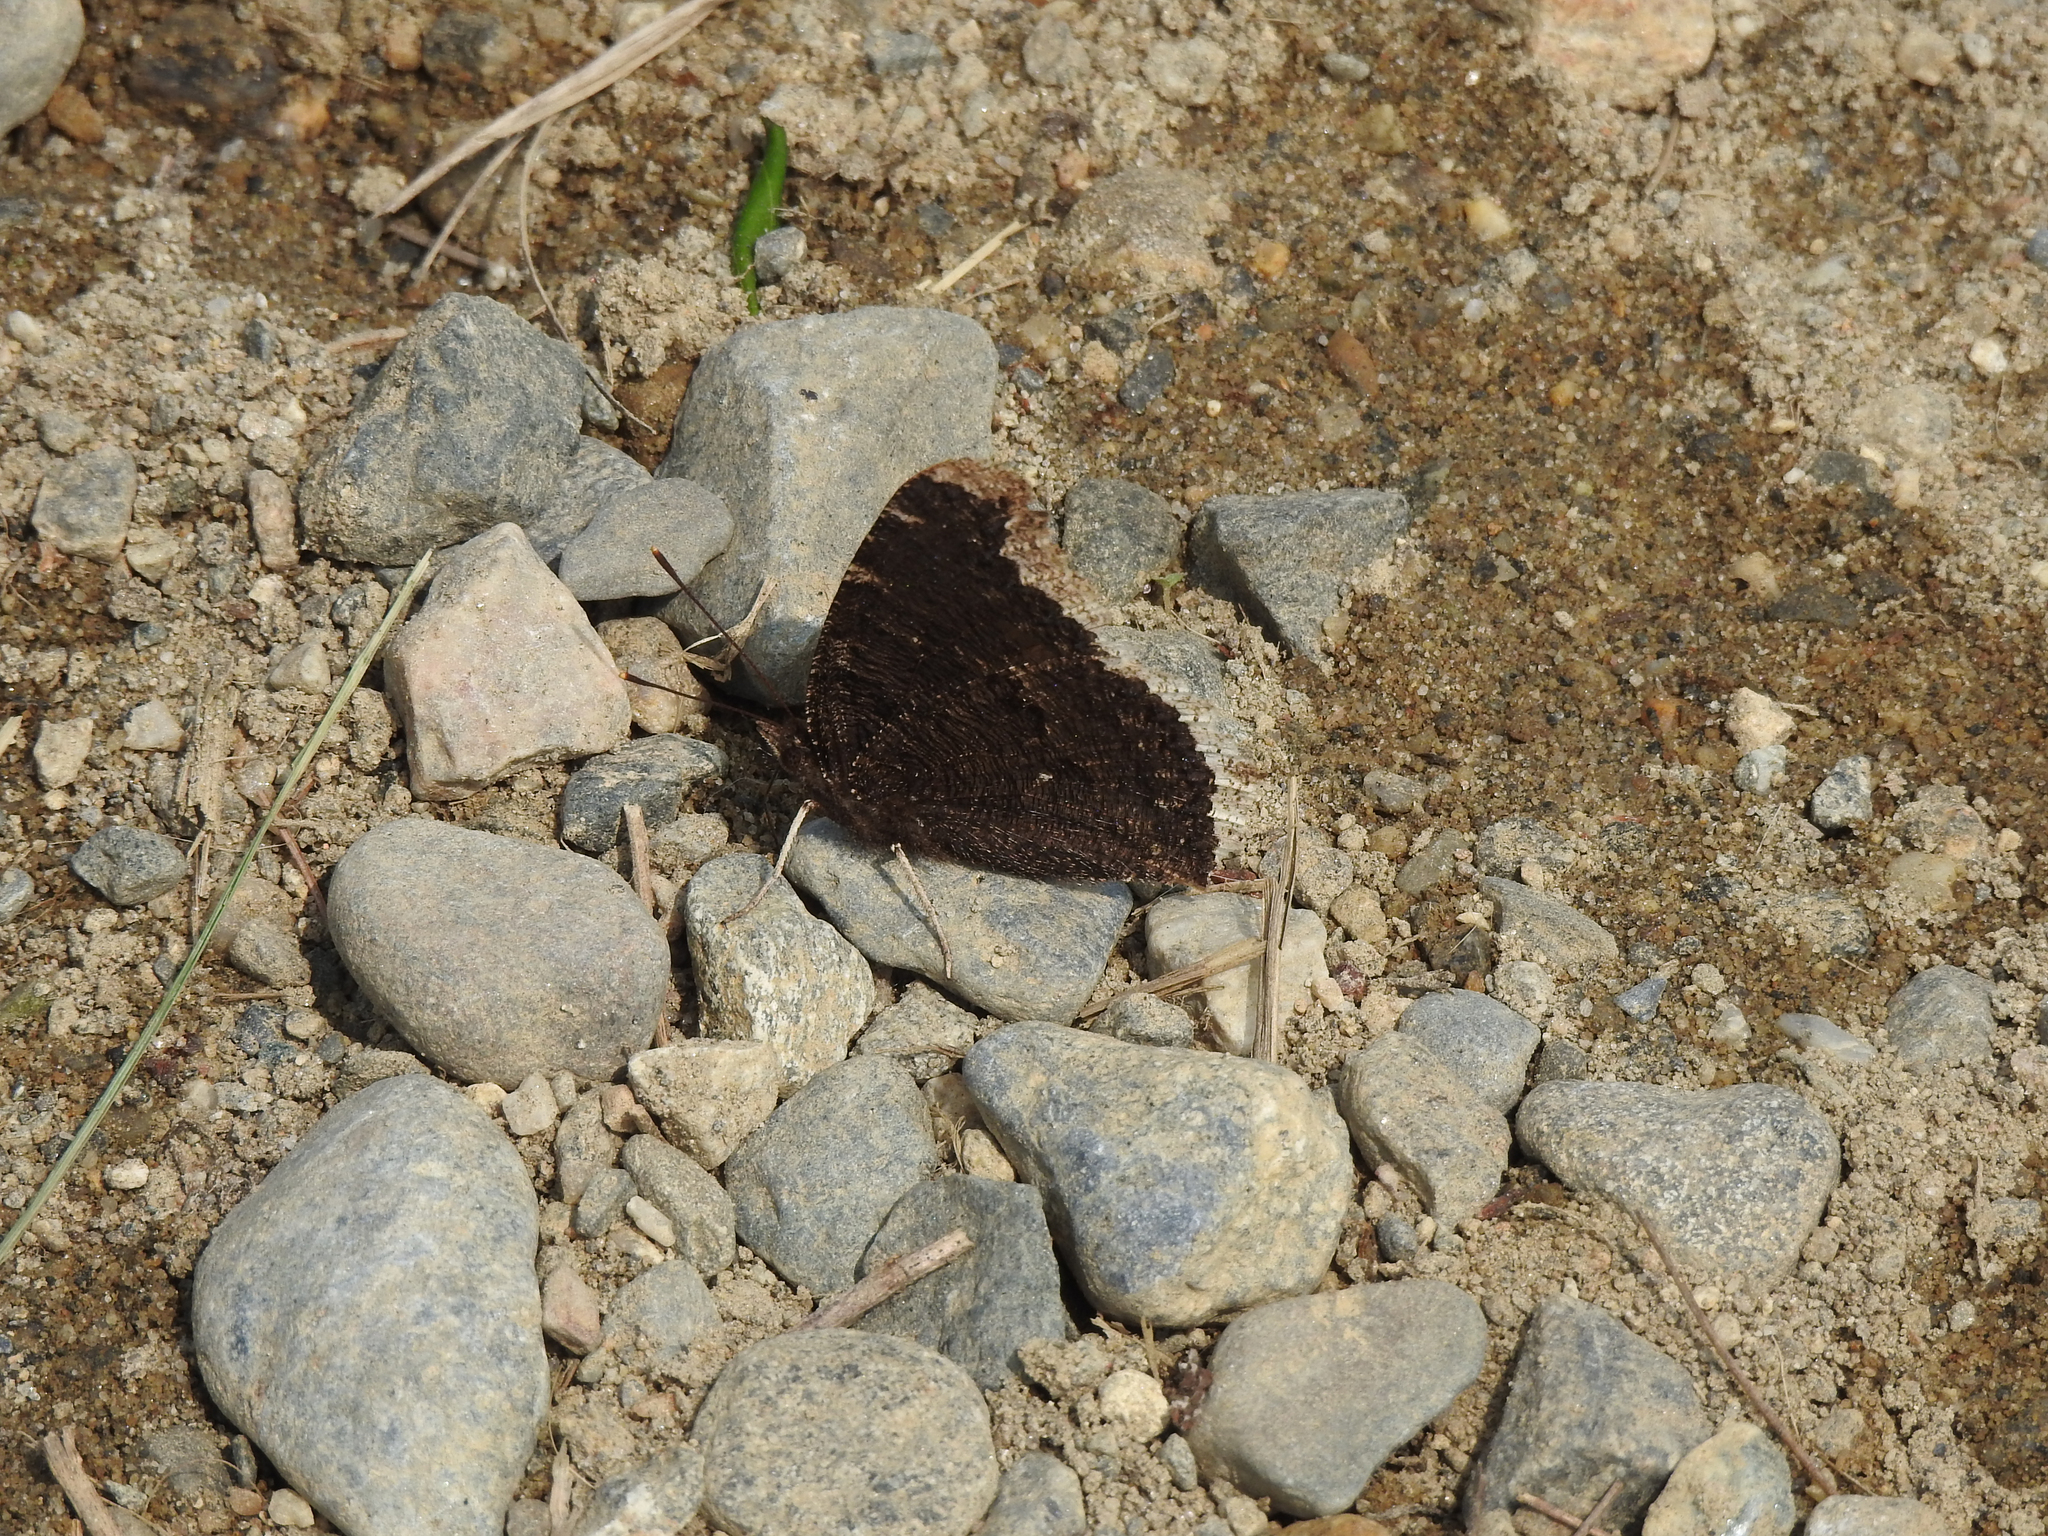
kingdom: Animalia
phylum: Arthropoda
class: Insecta
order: Lepidoptera
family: Nymphalidae
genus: Nymphalis
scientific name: Nymphalis antiopa
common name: Camberwell beauty
